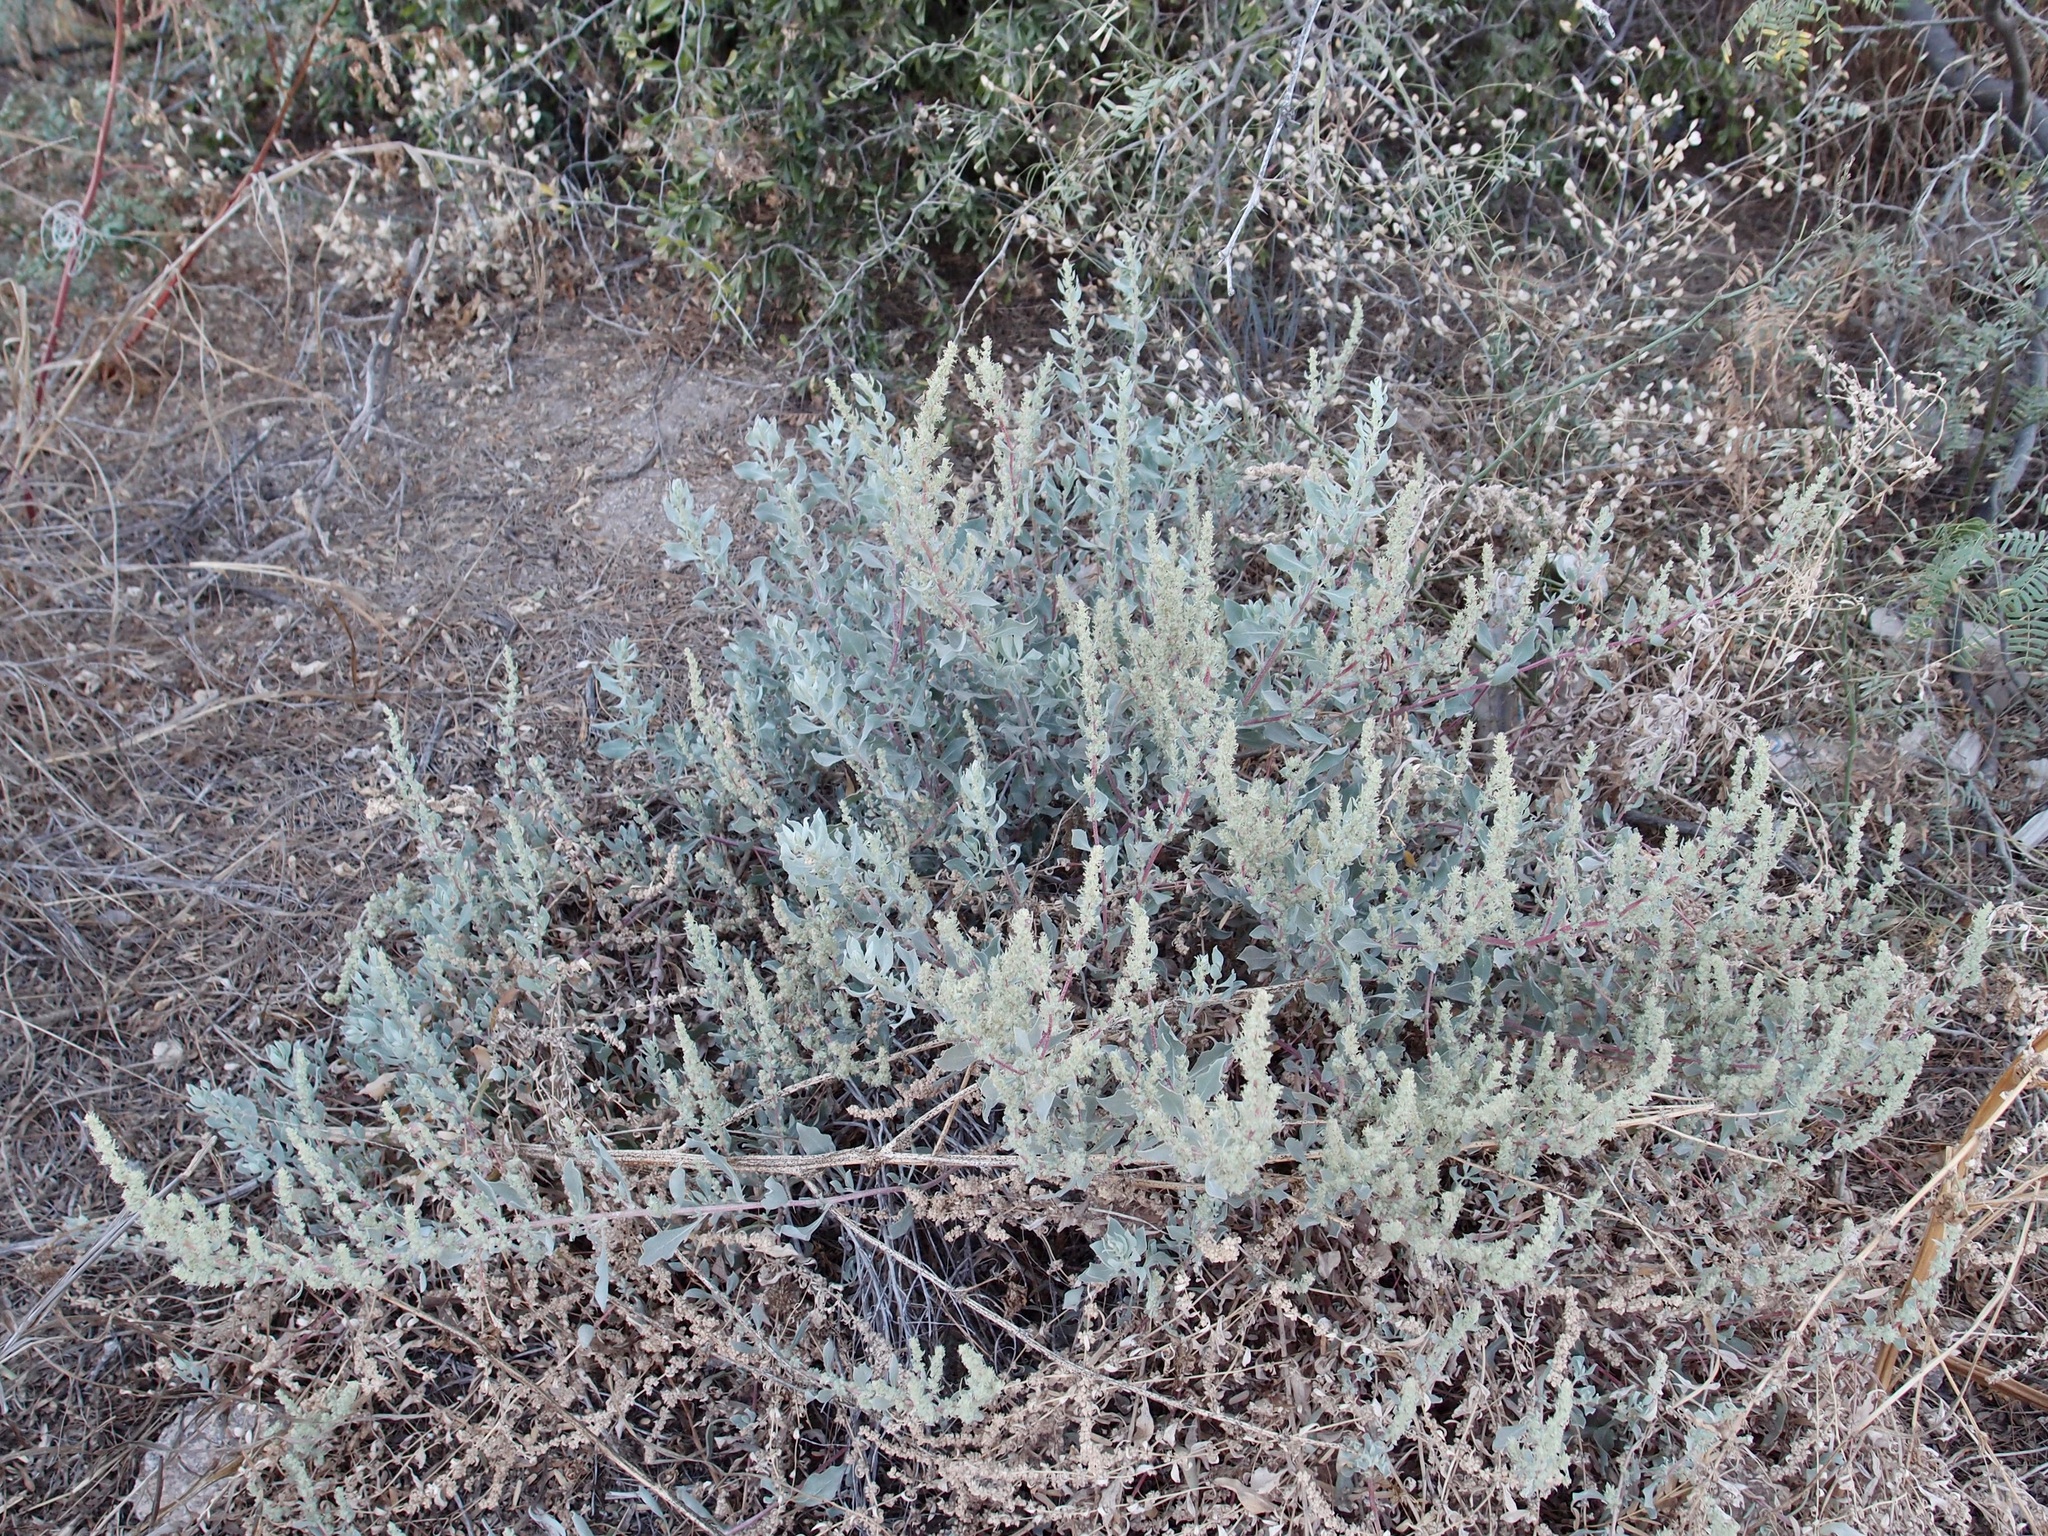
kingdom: Plantae
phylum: Tracheophyta
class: Magnoliopsida
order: Caryophyllales
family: Amaranthaceae
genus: Atriplex
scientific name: Atriplex barclayana
